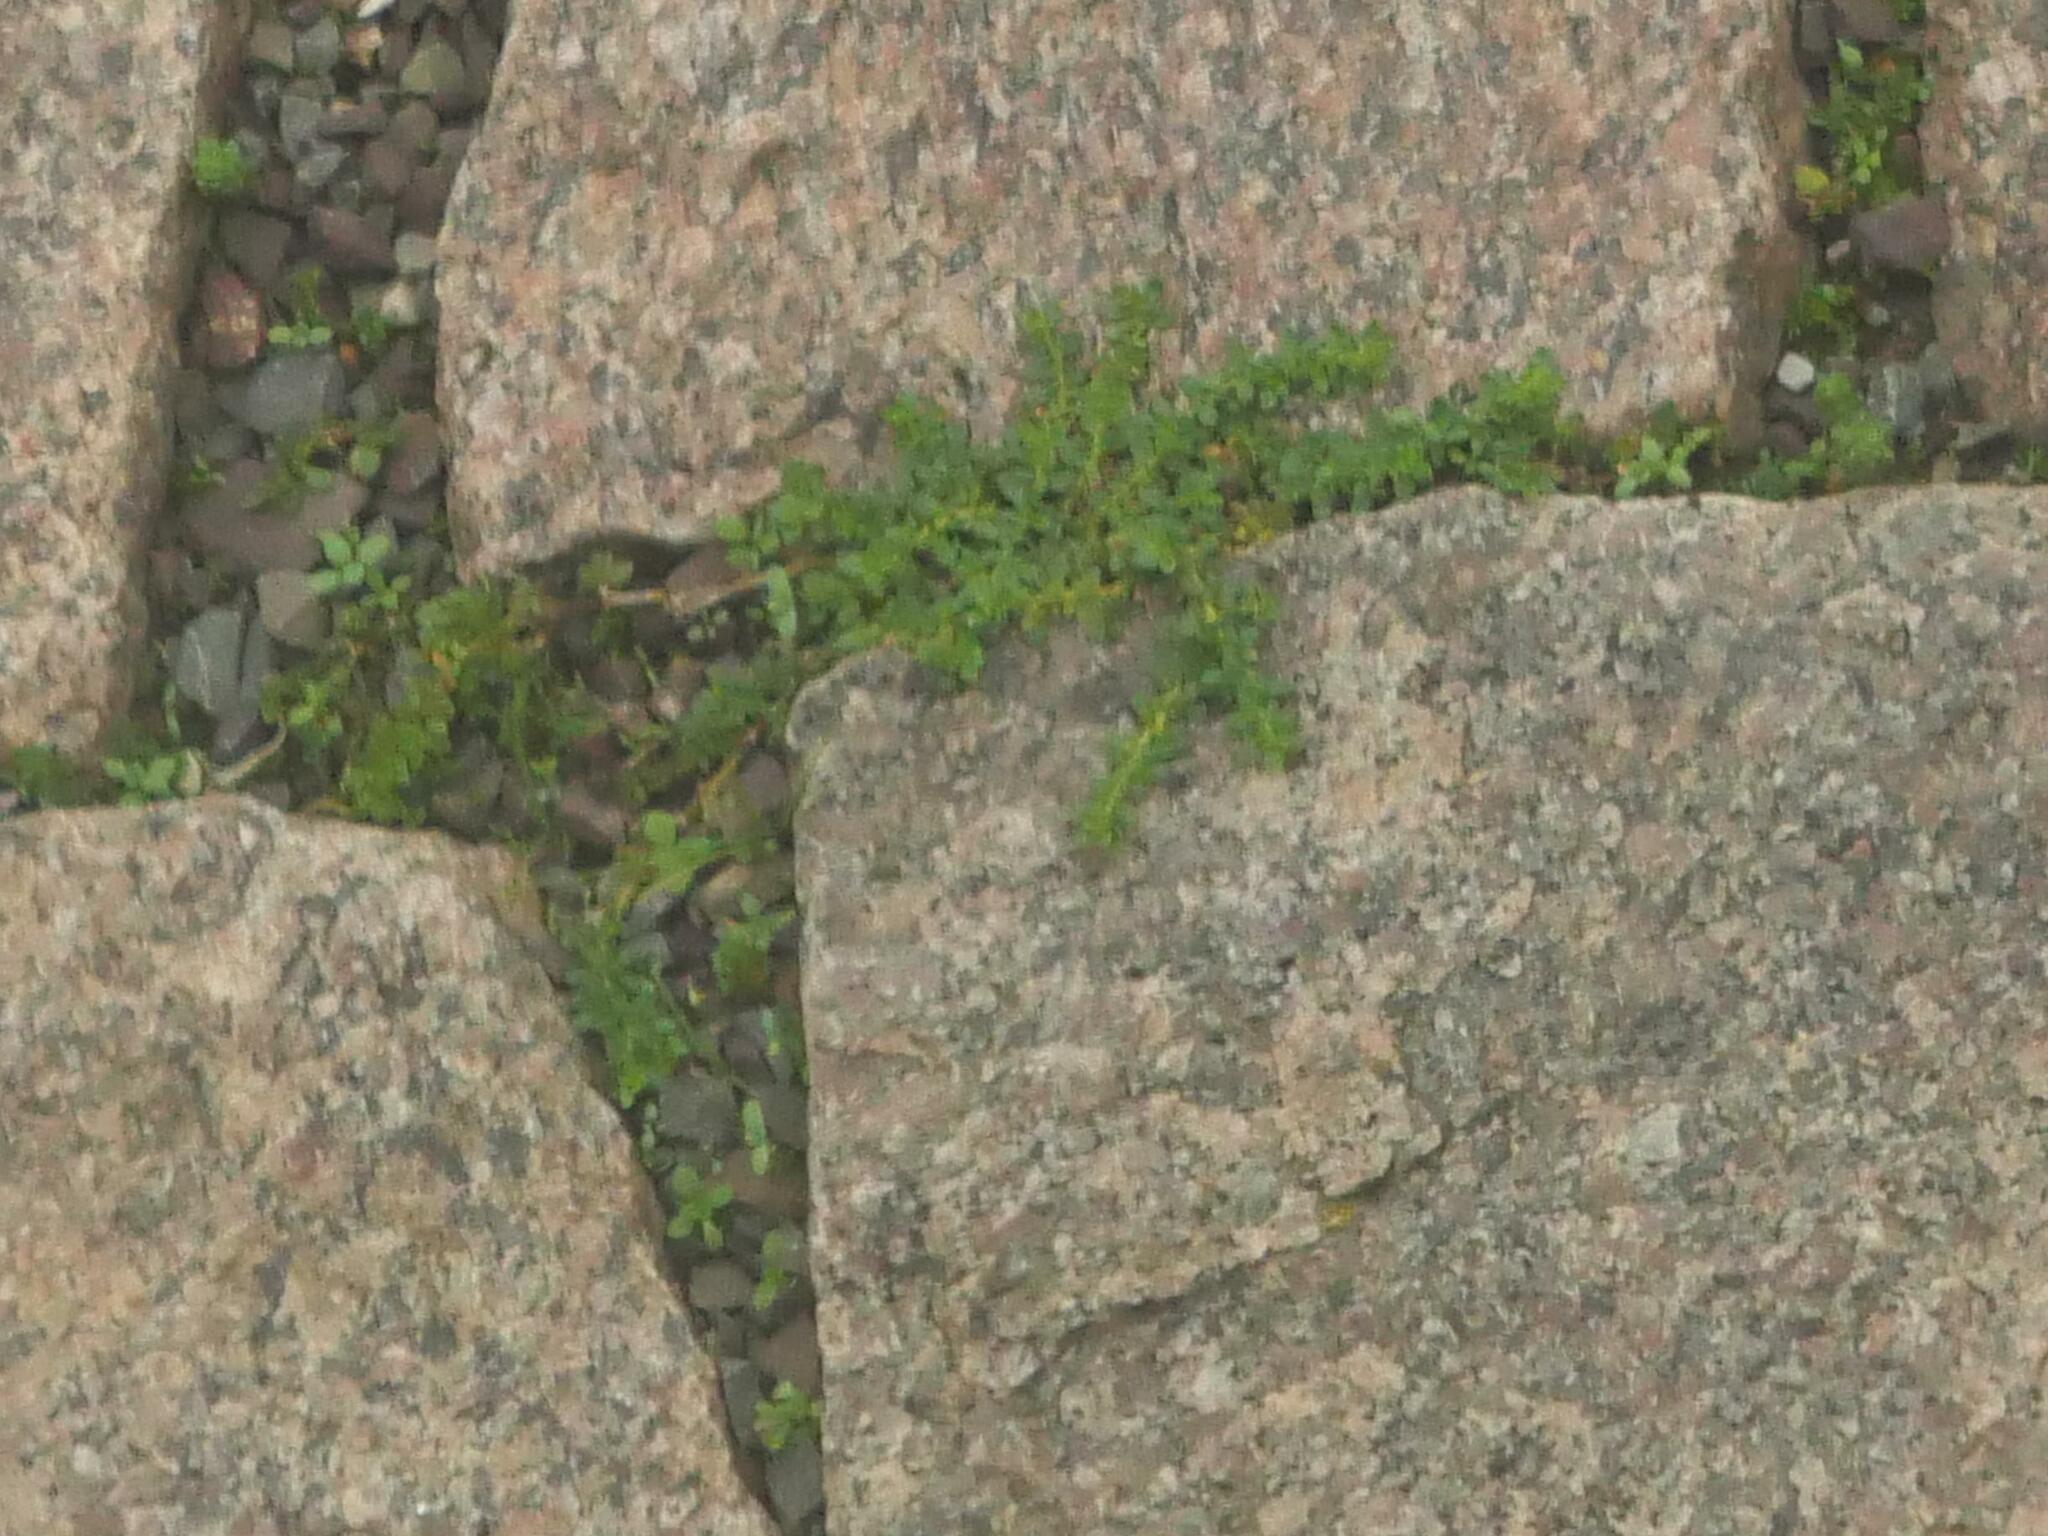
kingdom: Plantae
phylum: Tracheophyta
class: Magnoliopsida
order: Caryophyllales
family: Caryophyllaceae
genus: Herniaria
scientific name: Herniaria glabra
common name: Smooth rupturewort
